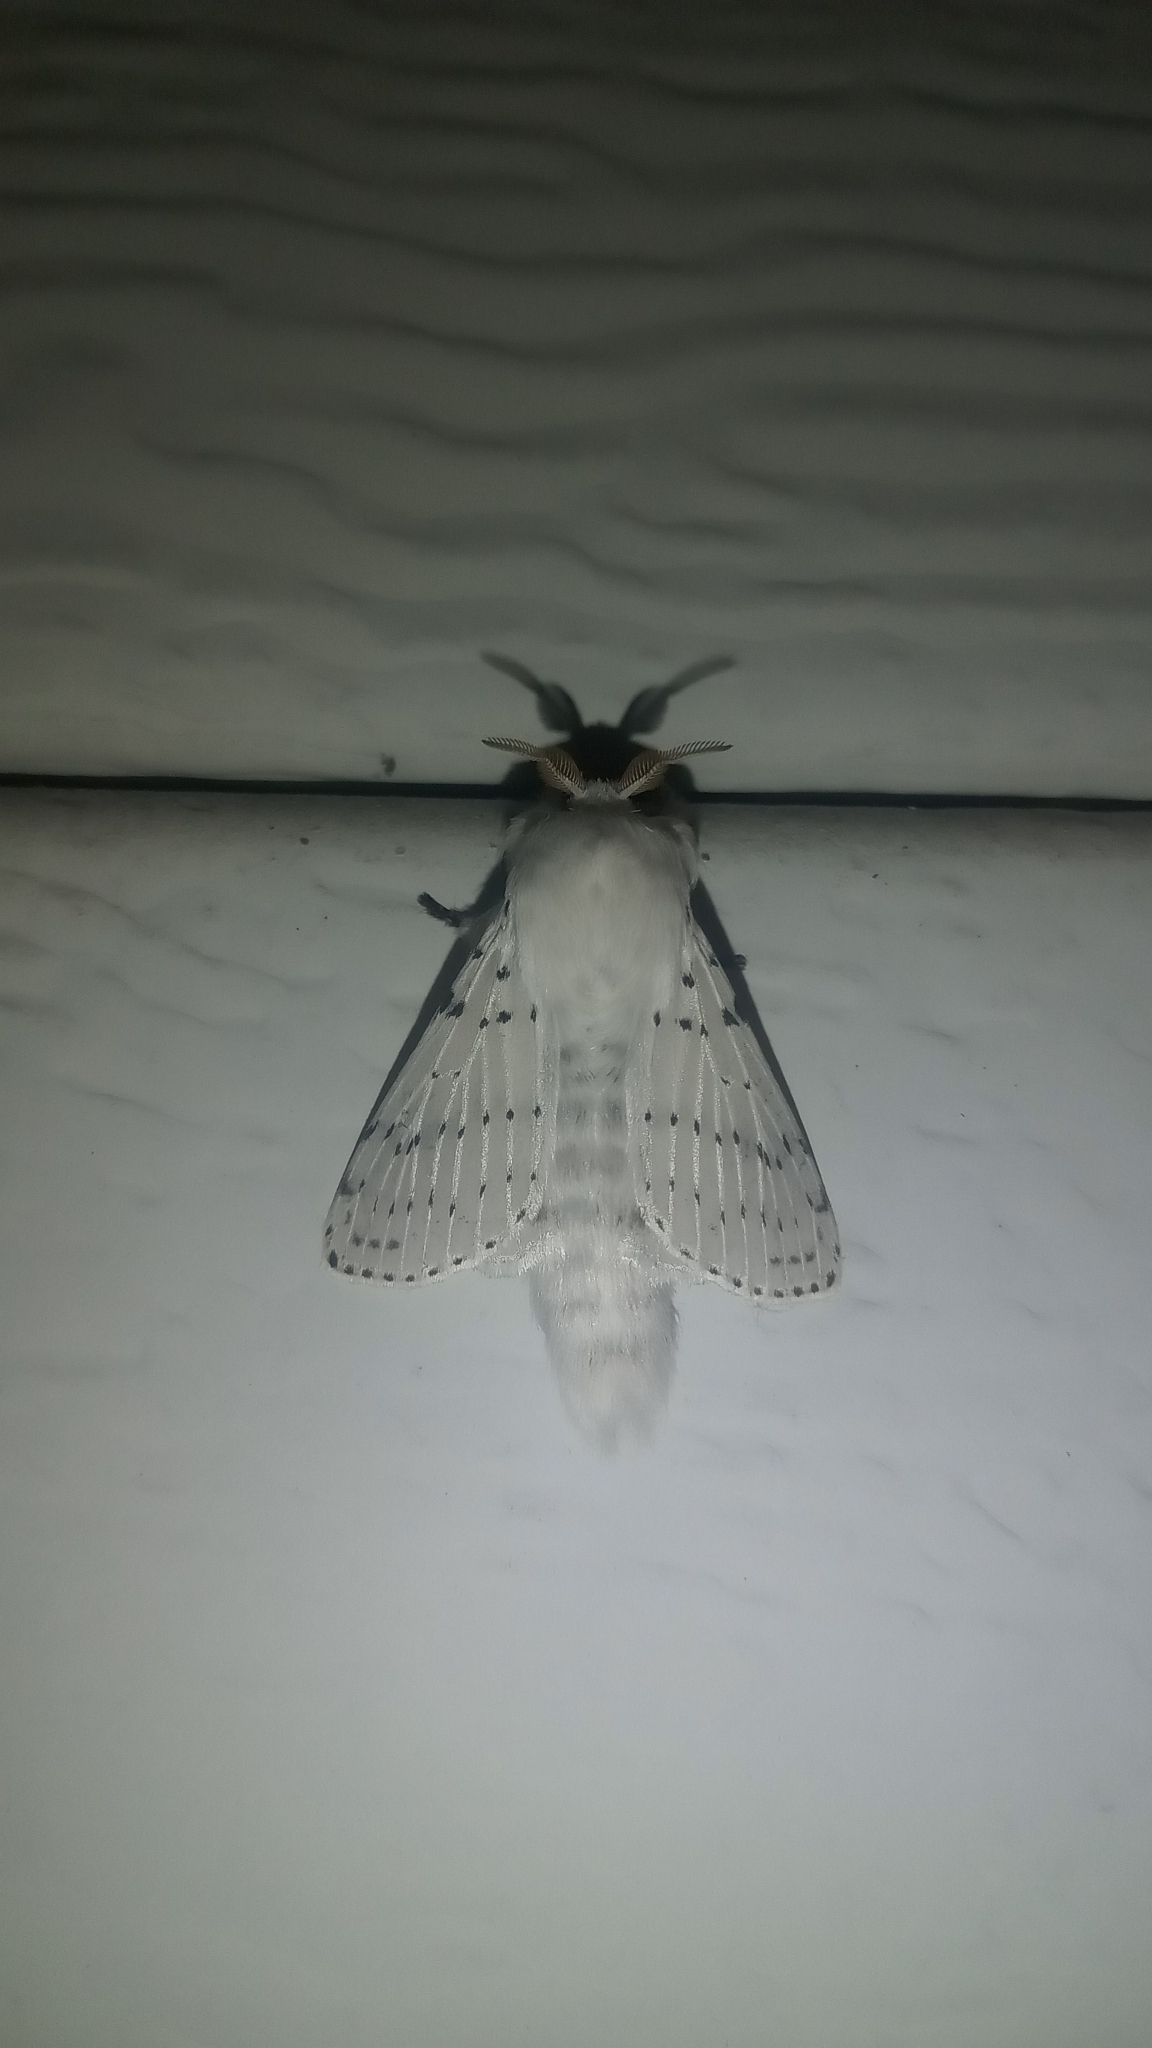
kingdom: Animalia
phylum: Arthropoda
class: Insecta
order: Lepidoptera
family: Lasiocampidae
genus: Artace
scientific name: Artace cribrarius
